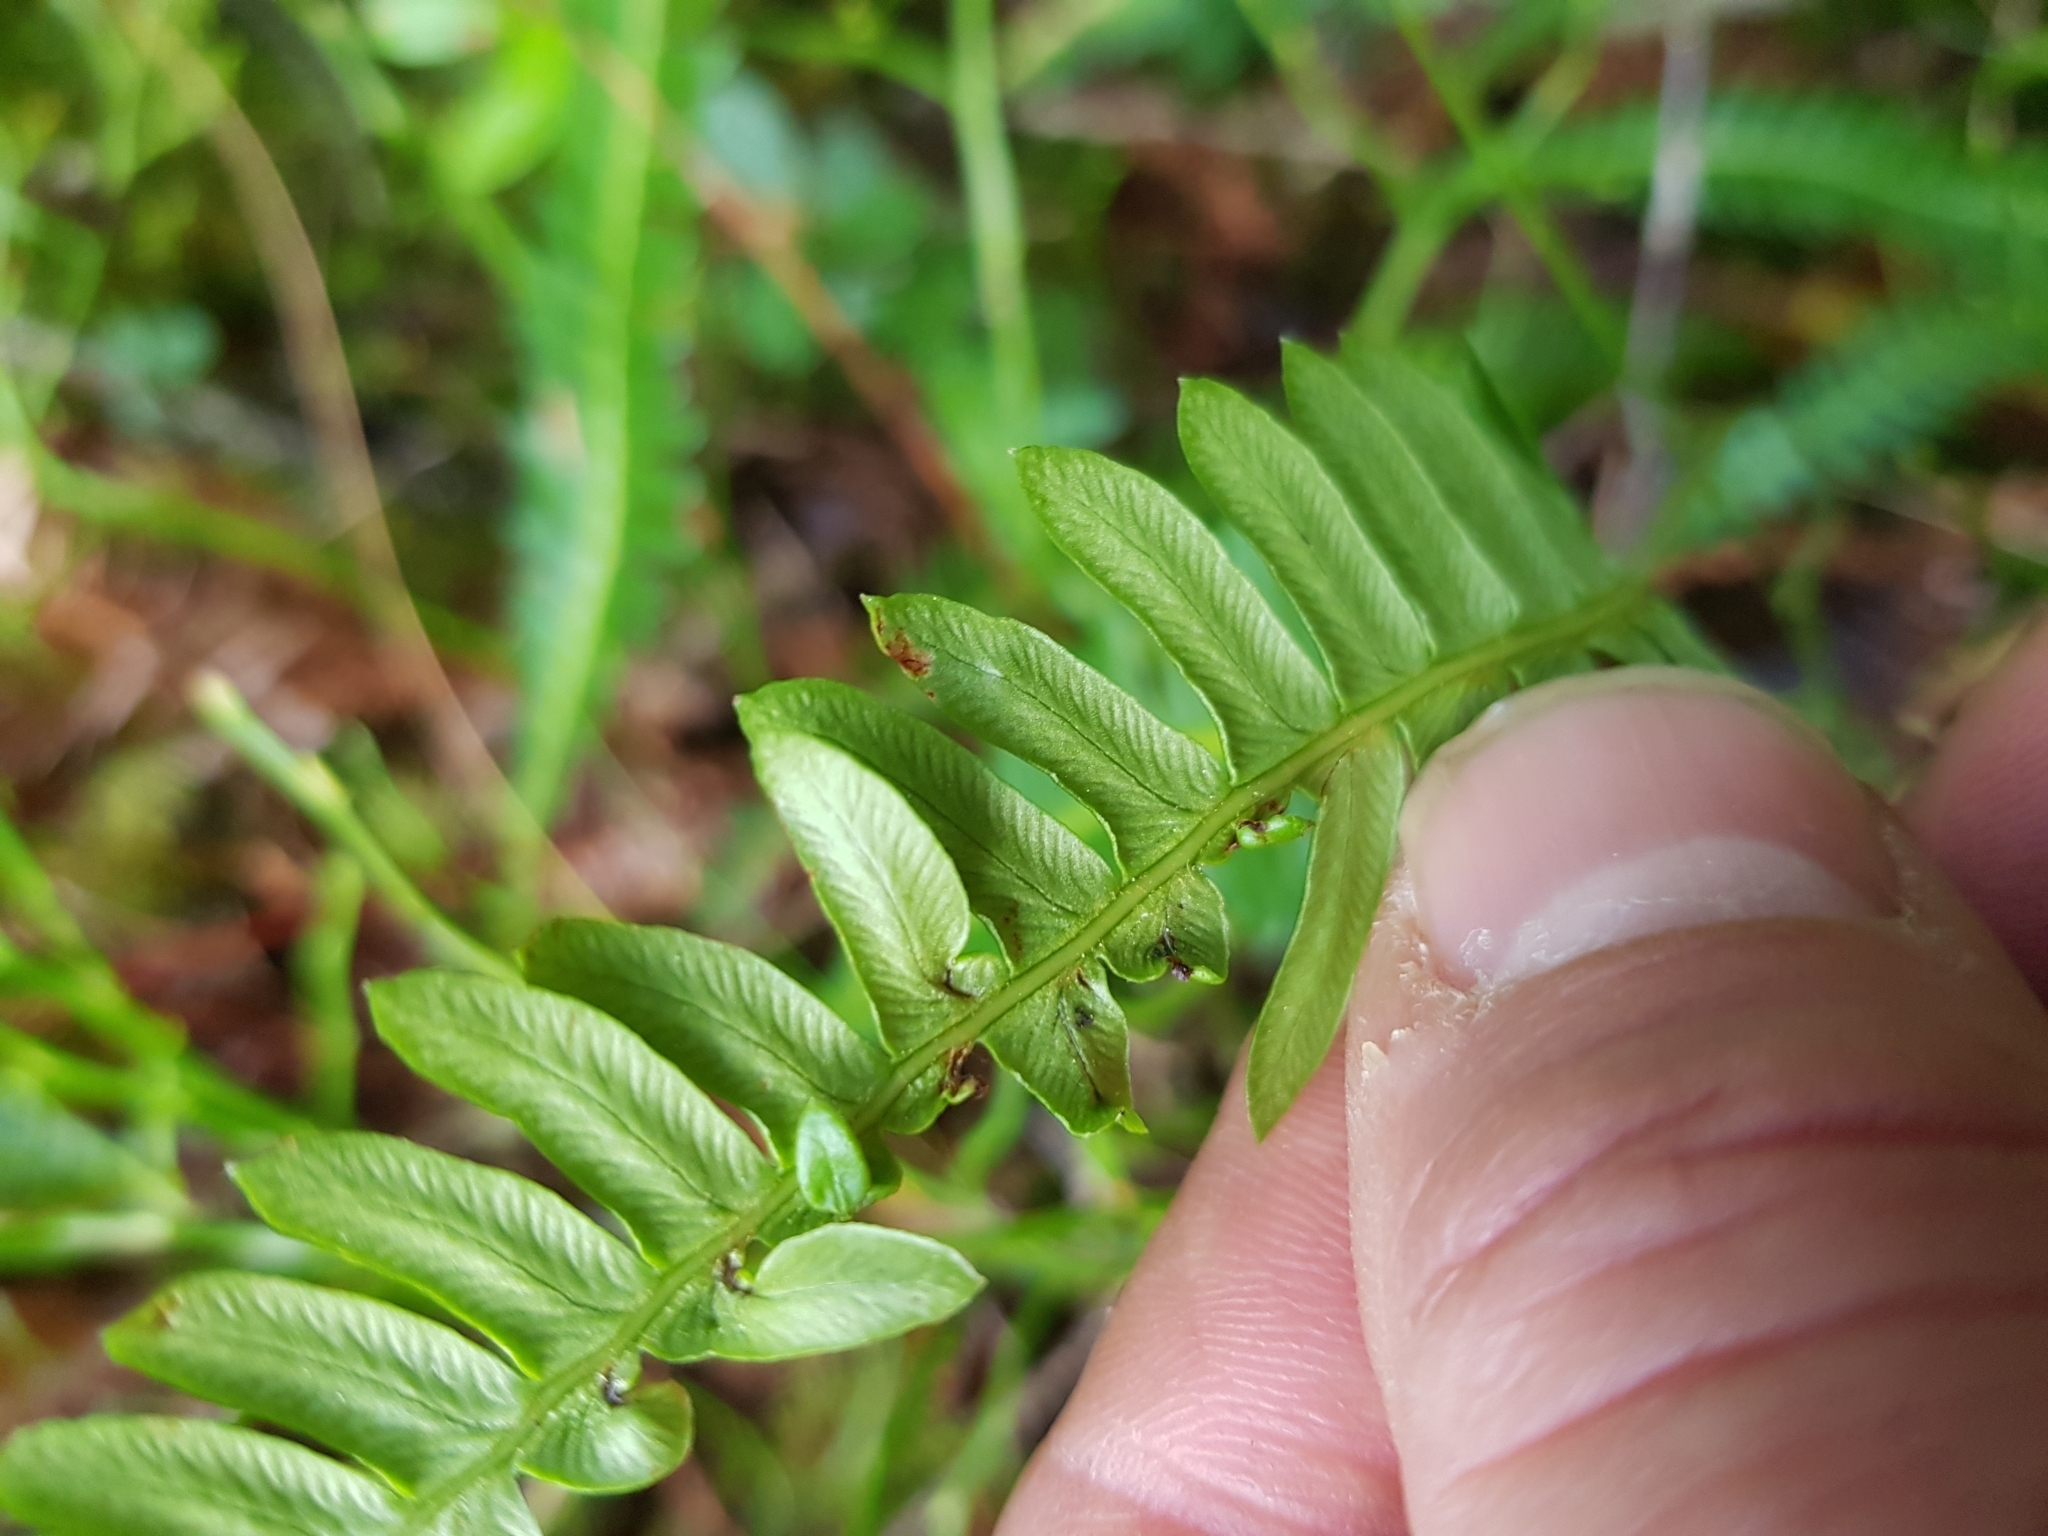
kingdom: Plantae
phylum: Tracheophyta
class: Polypodiopsida
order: Polypodiales
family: Blechnaceae
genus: Struthiopteris
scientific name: Struthiopteris spicant
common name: Deer fern
